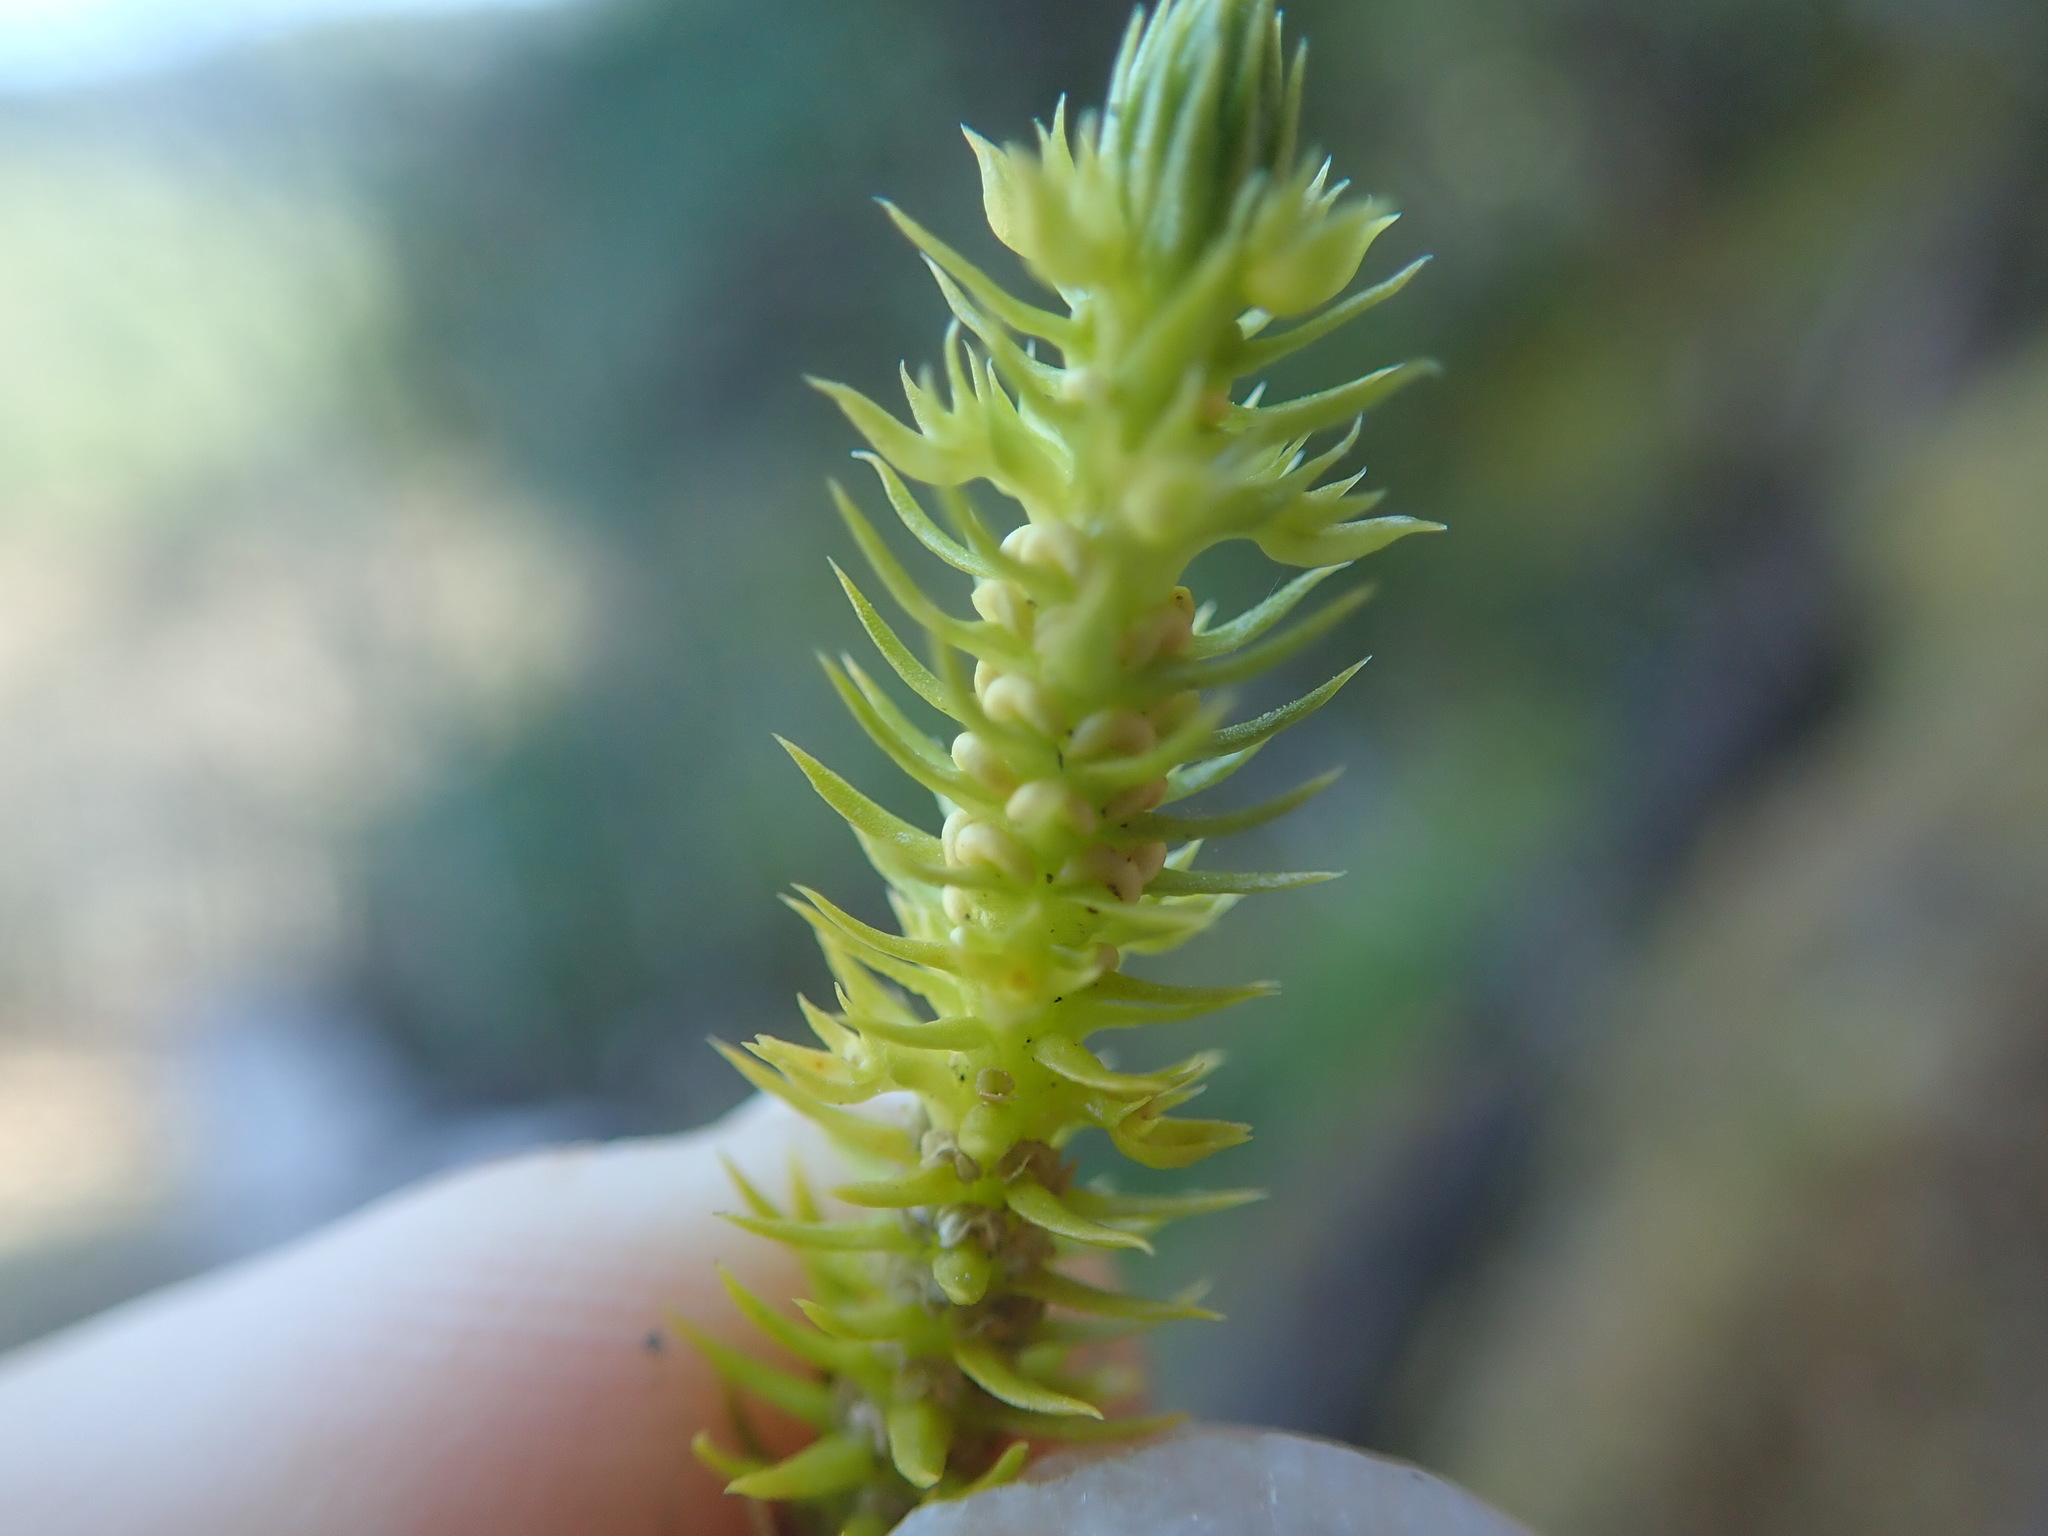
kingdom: Plantae
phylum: Tracheophyta
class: Lycopodiopsida
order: Lycopodiales
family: Lycopodiaceae
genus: Huperzia
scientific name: Huperzia miyoshiana
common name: Chinese clubmoss
